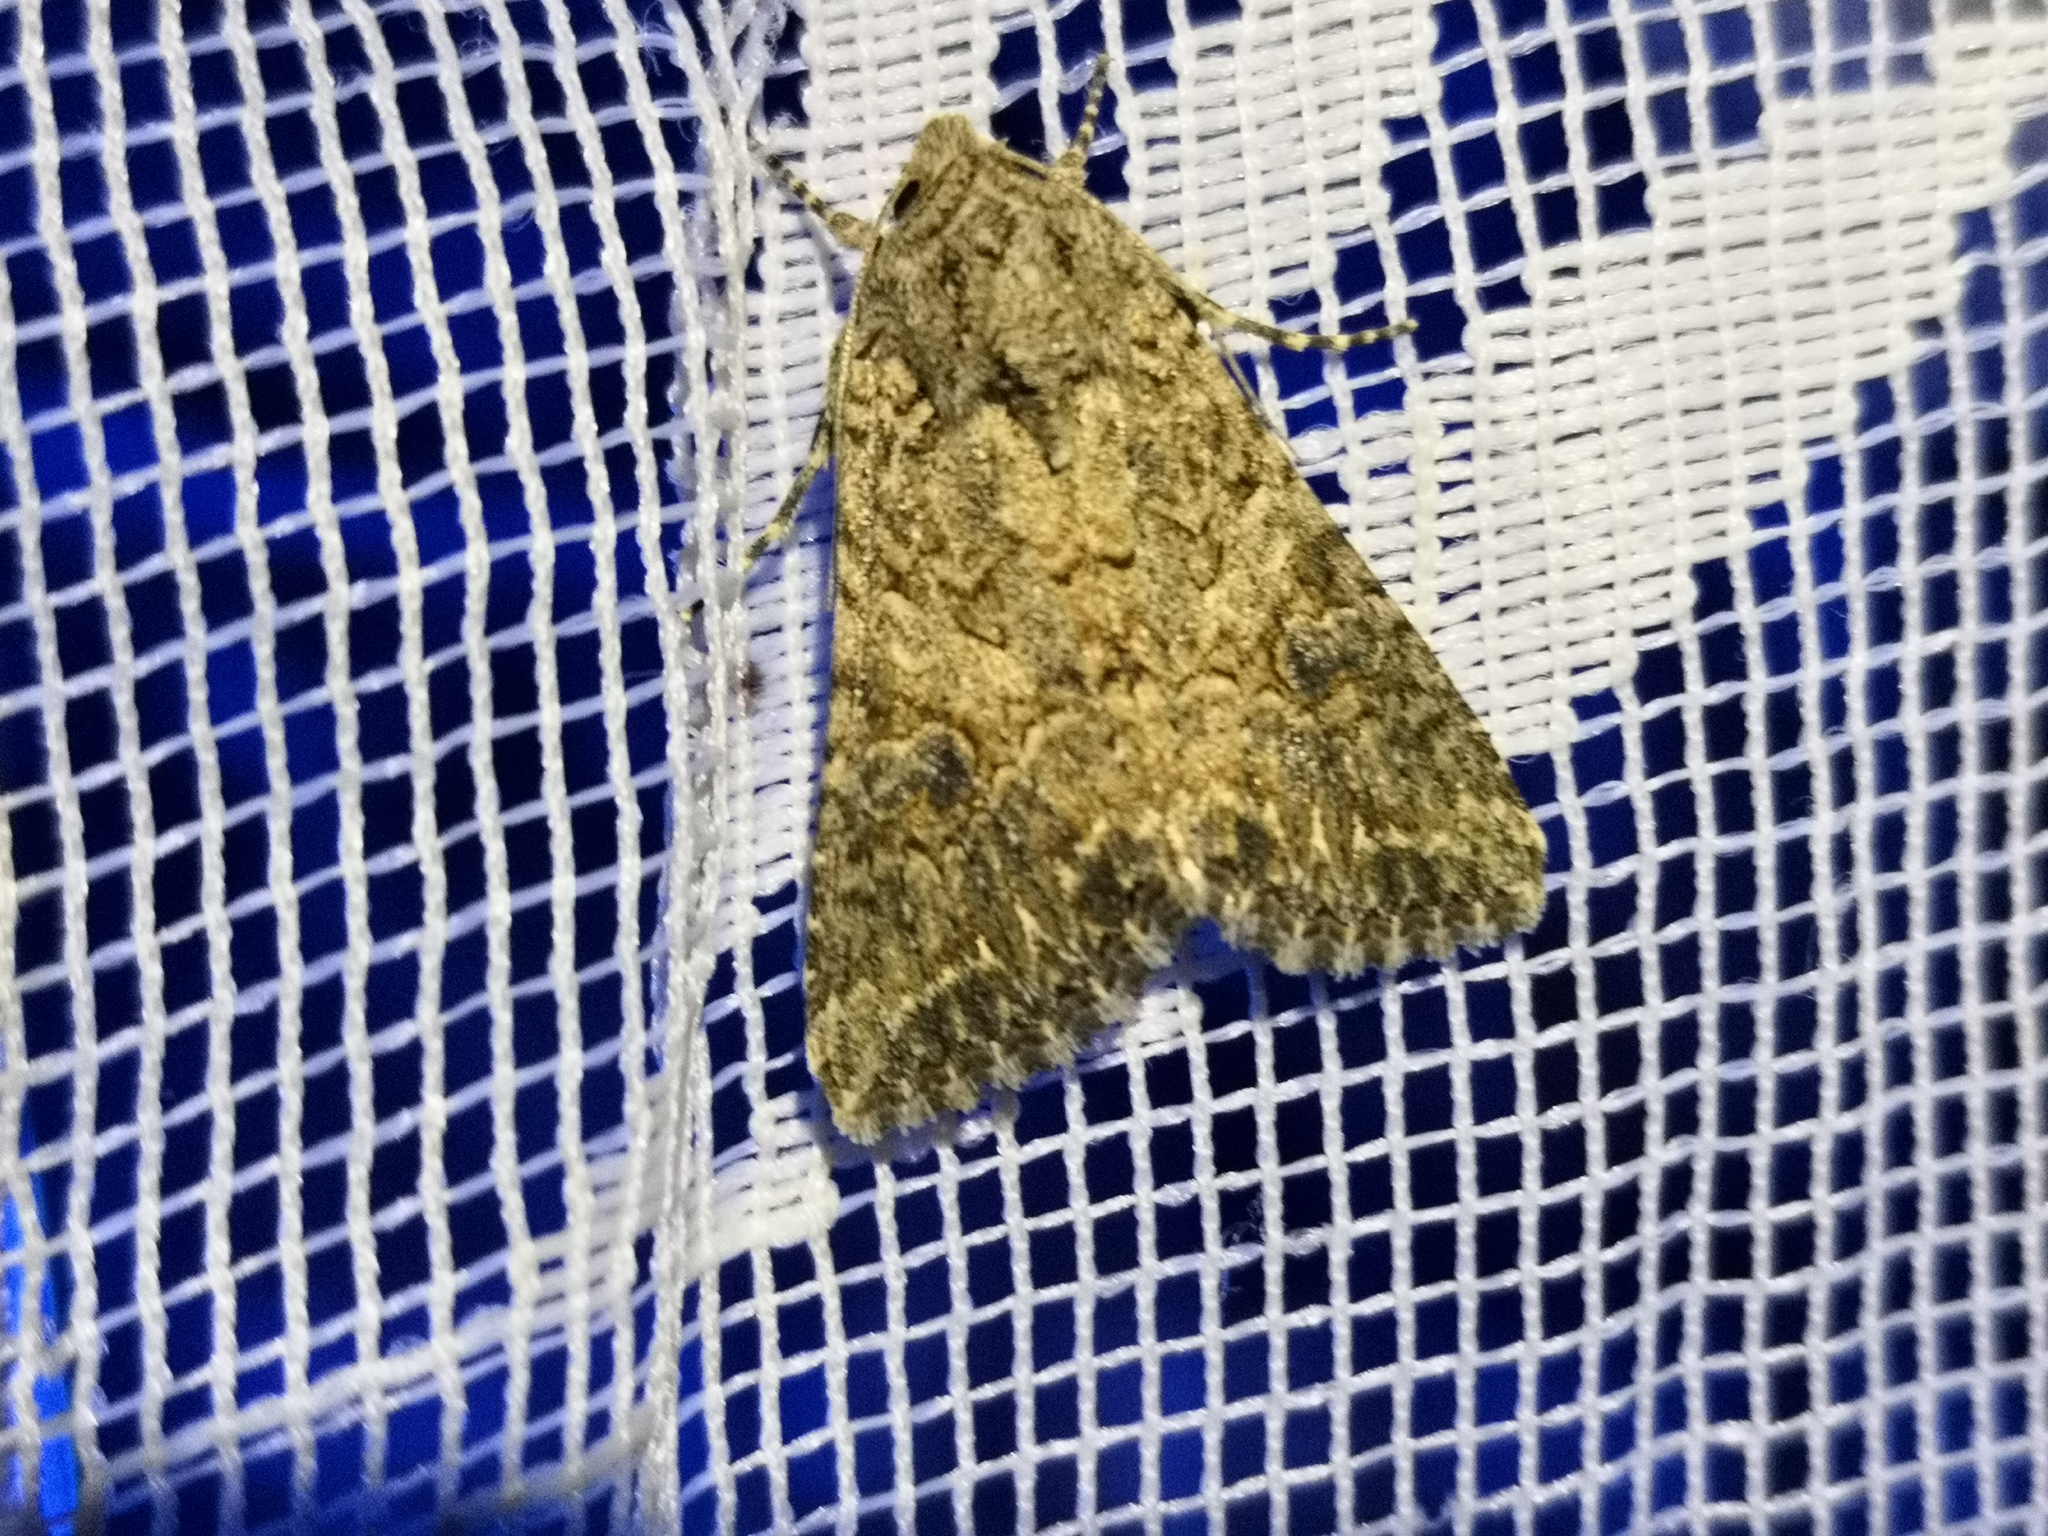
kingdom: Animalia
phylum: Arthropoda
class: Insecta
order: Lepidoptera
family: Noctuidae
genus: Anarta
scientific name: Anarta trifolii
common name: Clover cutworm moth
